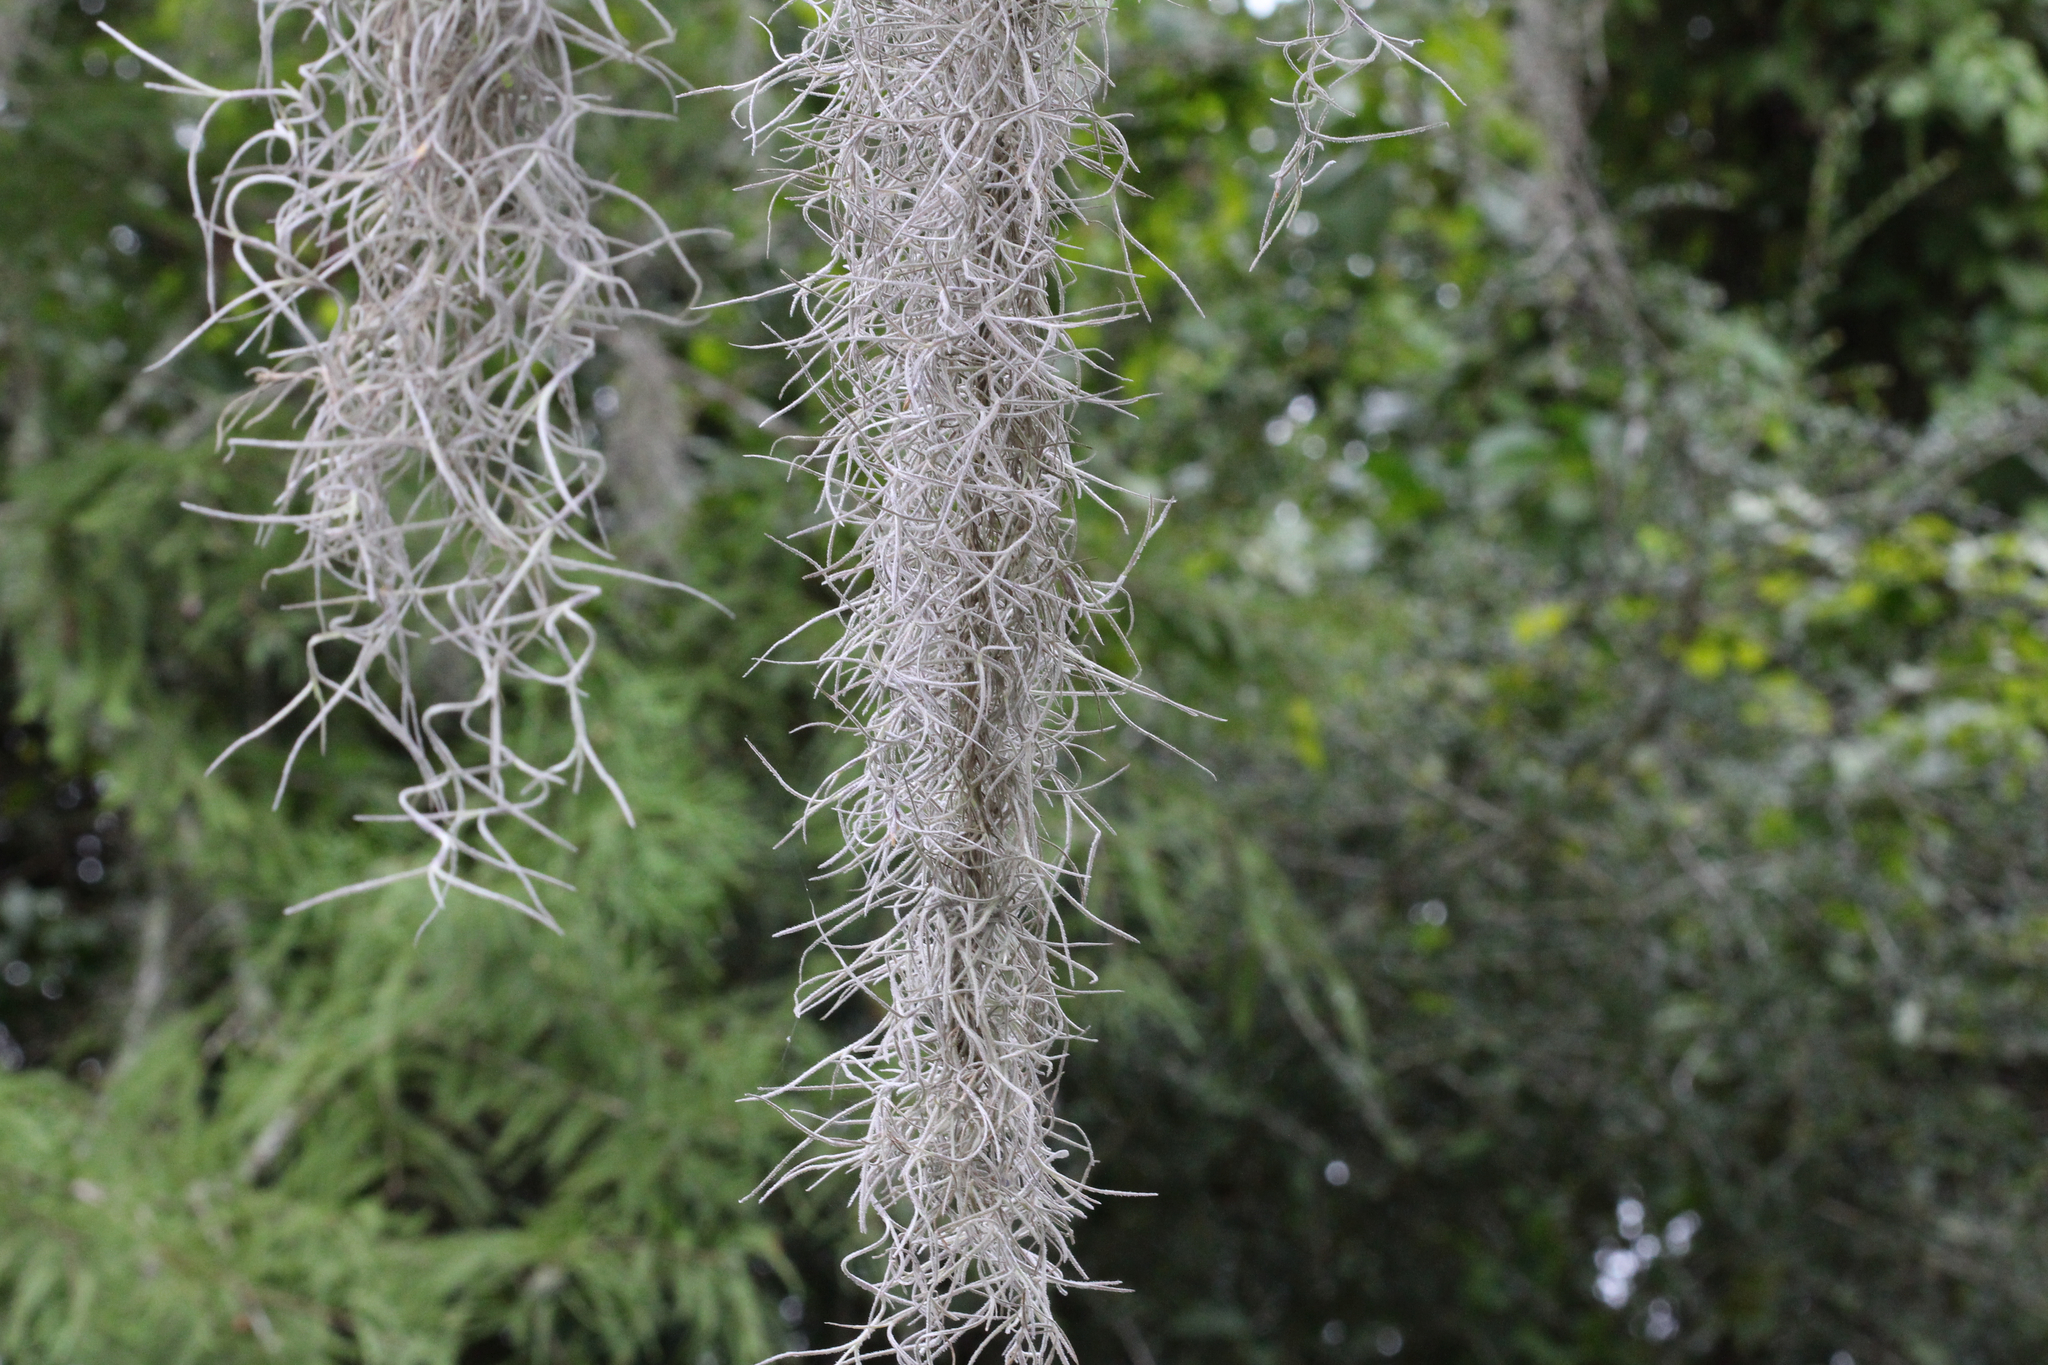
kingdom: Plantae
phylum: Tracheophyta
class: Liliopsida
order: Poales
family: Bromeliaceae
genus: Tillandsia
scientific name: Tillandsia usneoides
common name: Spanish moss
